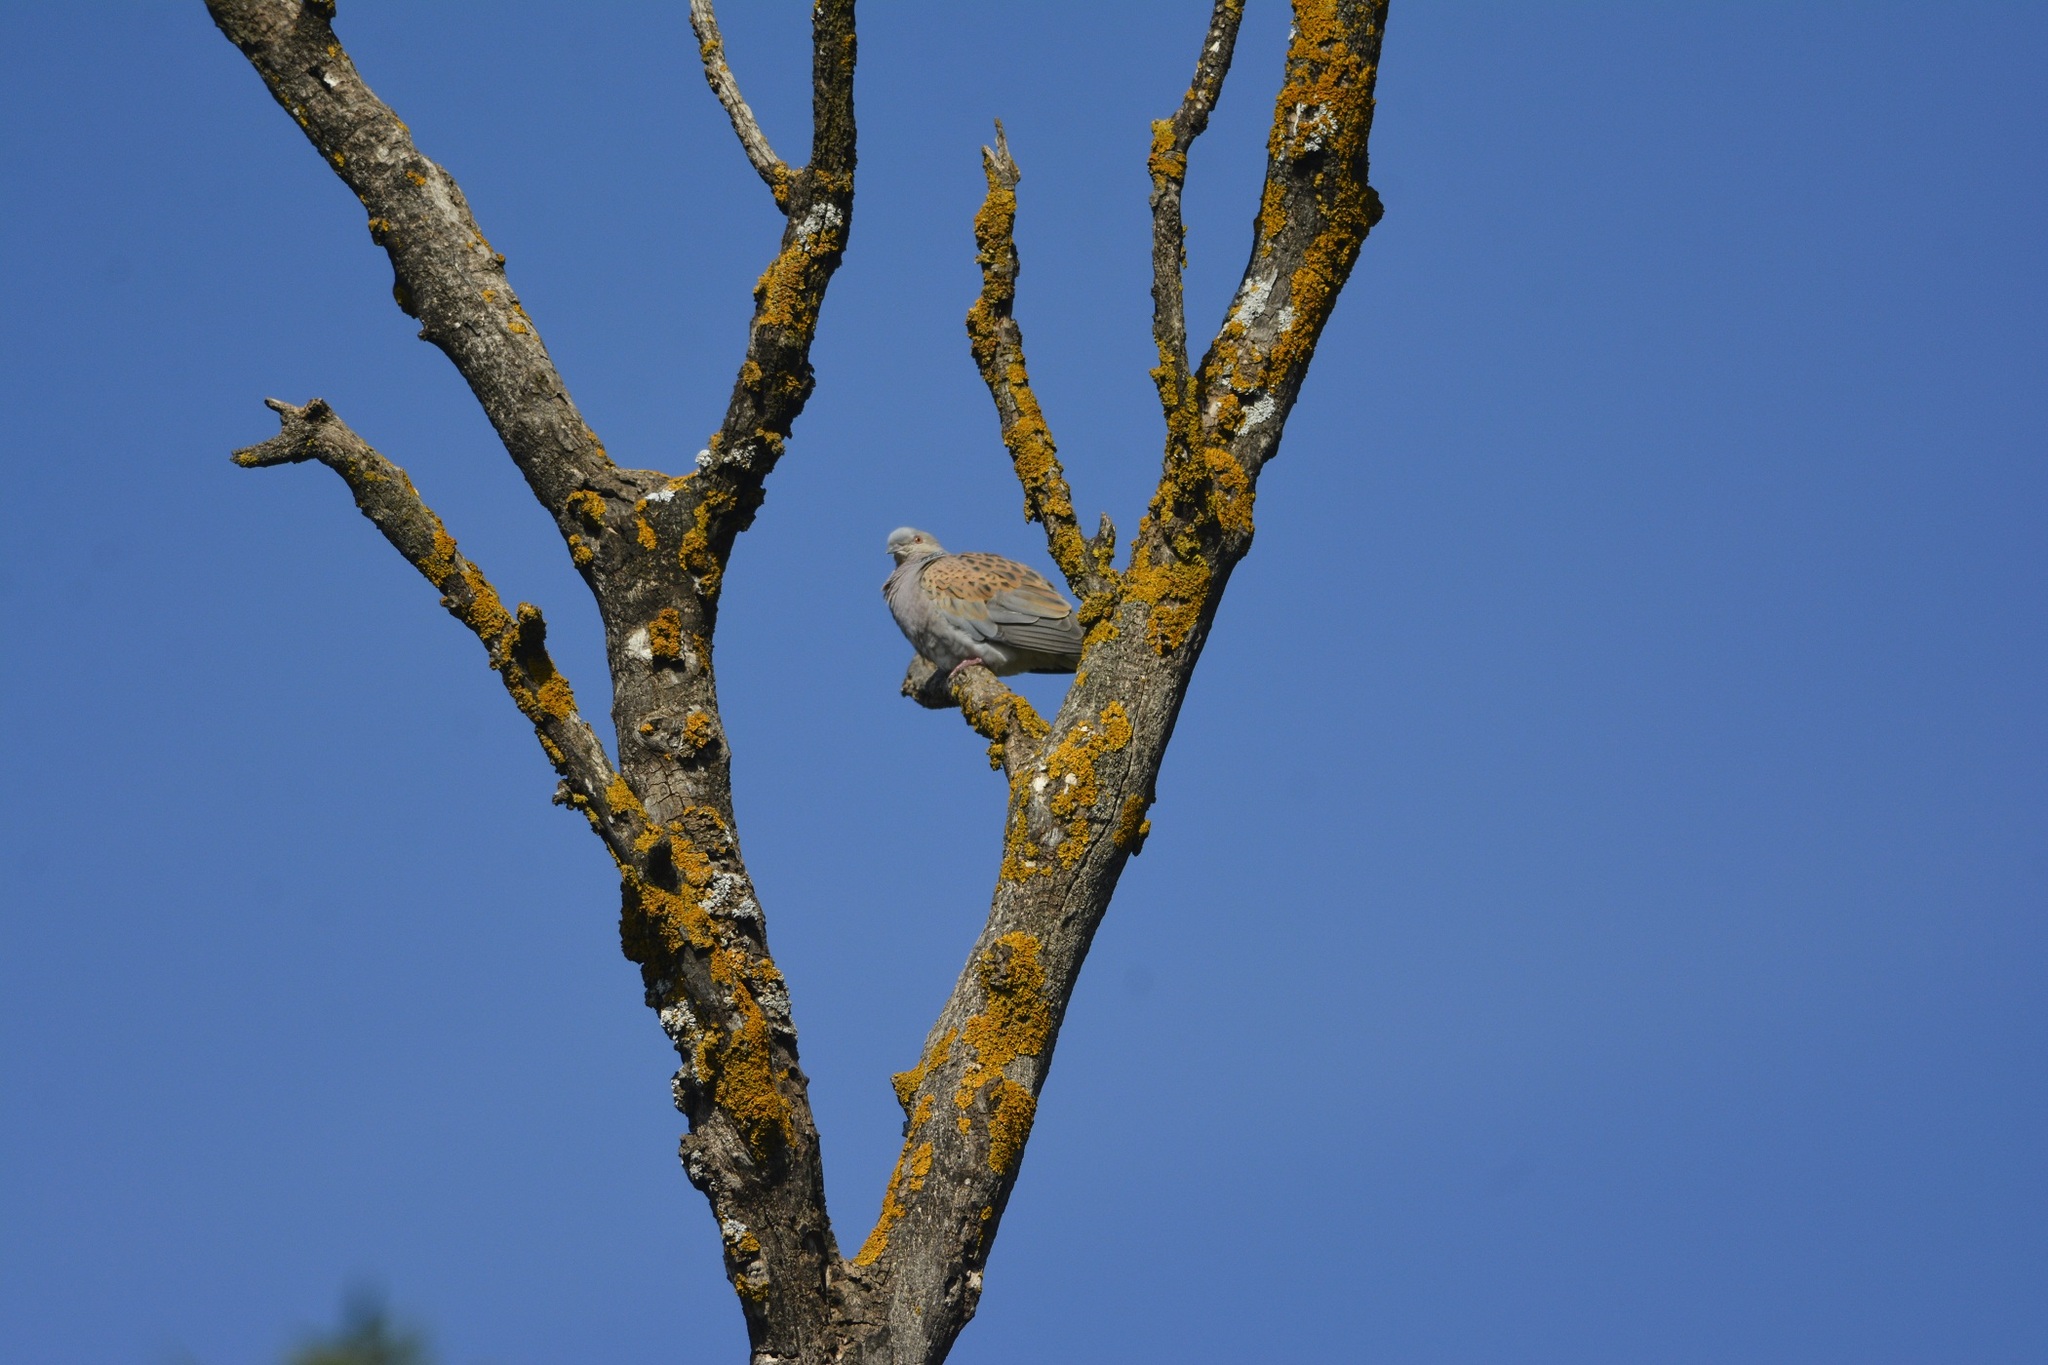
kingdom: Animalia
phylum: Chordata
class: Aves
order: Columbiformes
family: Columbidae
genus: Streptopelia
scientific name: Streptopelia turtur
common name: European turtle dove
